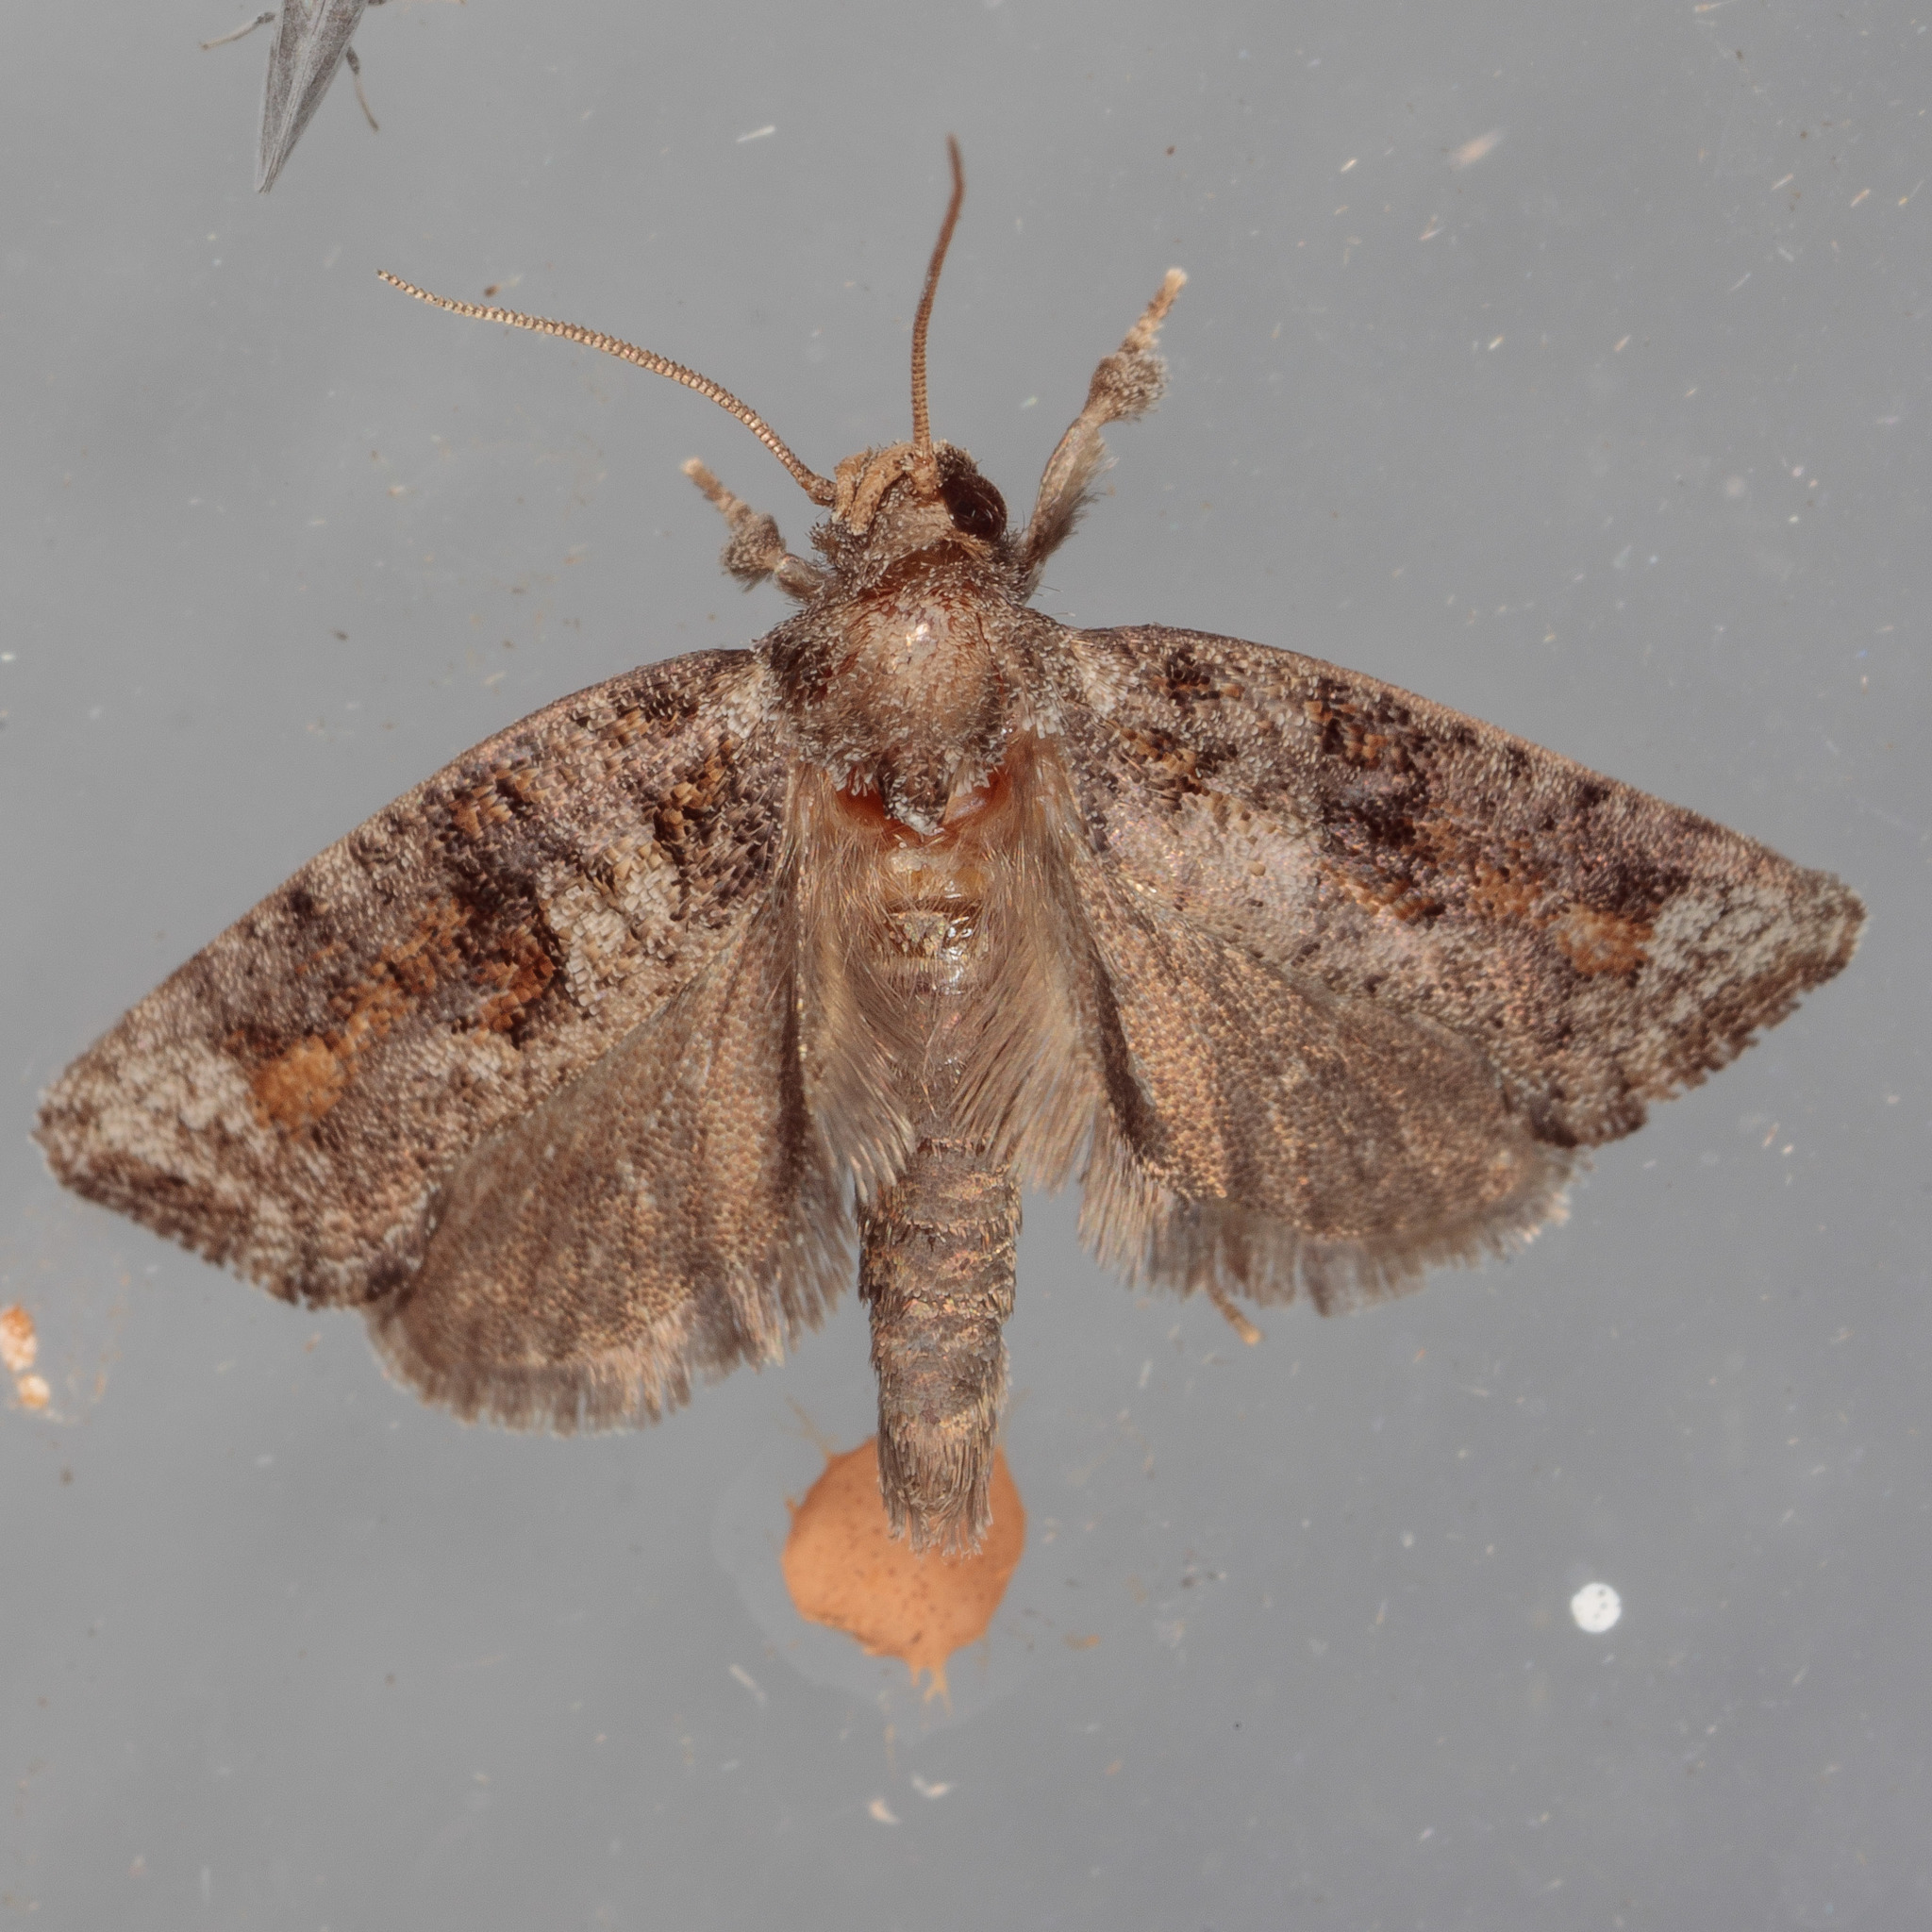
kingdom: Animalia
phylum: Arthropoda
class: Insecta
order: Lepidoptera
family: Tineidae
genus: Acrolophus
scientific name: Acrolophus piger
